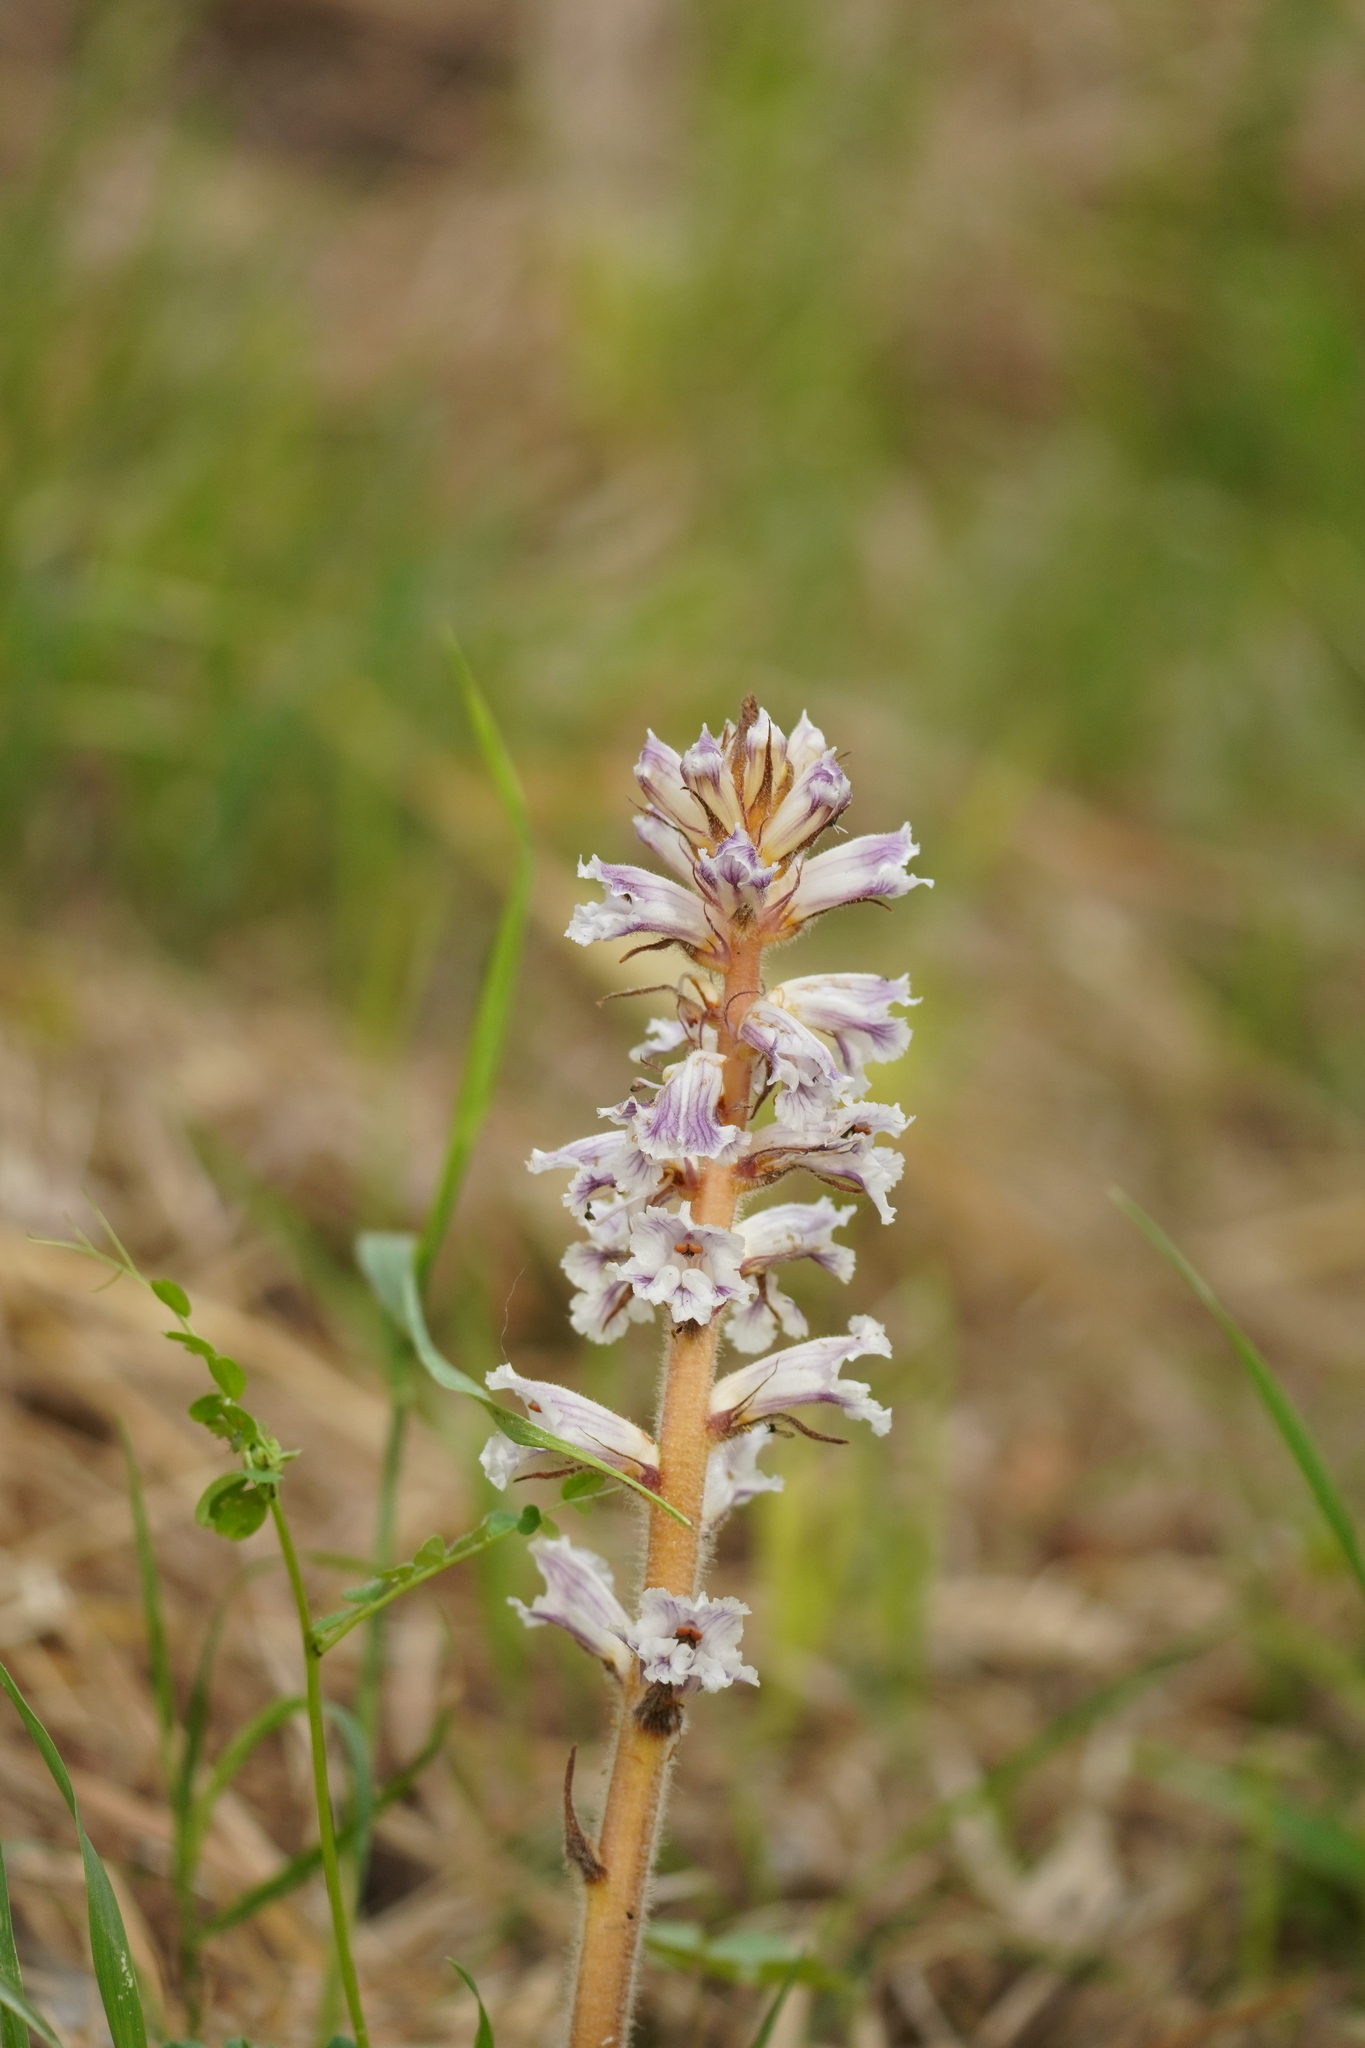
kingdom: Plantae
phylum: Tracheophyta
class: Magnoliopsida
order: Lamiales
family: Orobanchaceae
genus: Orobanche
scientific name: Orobanche crenata
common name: Bean broomrape
